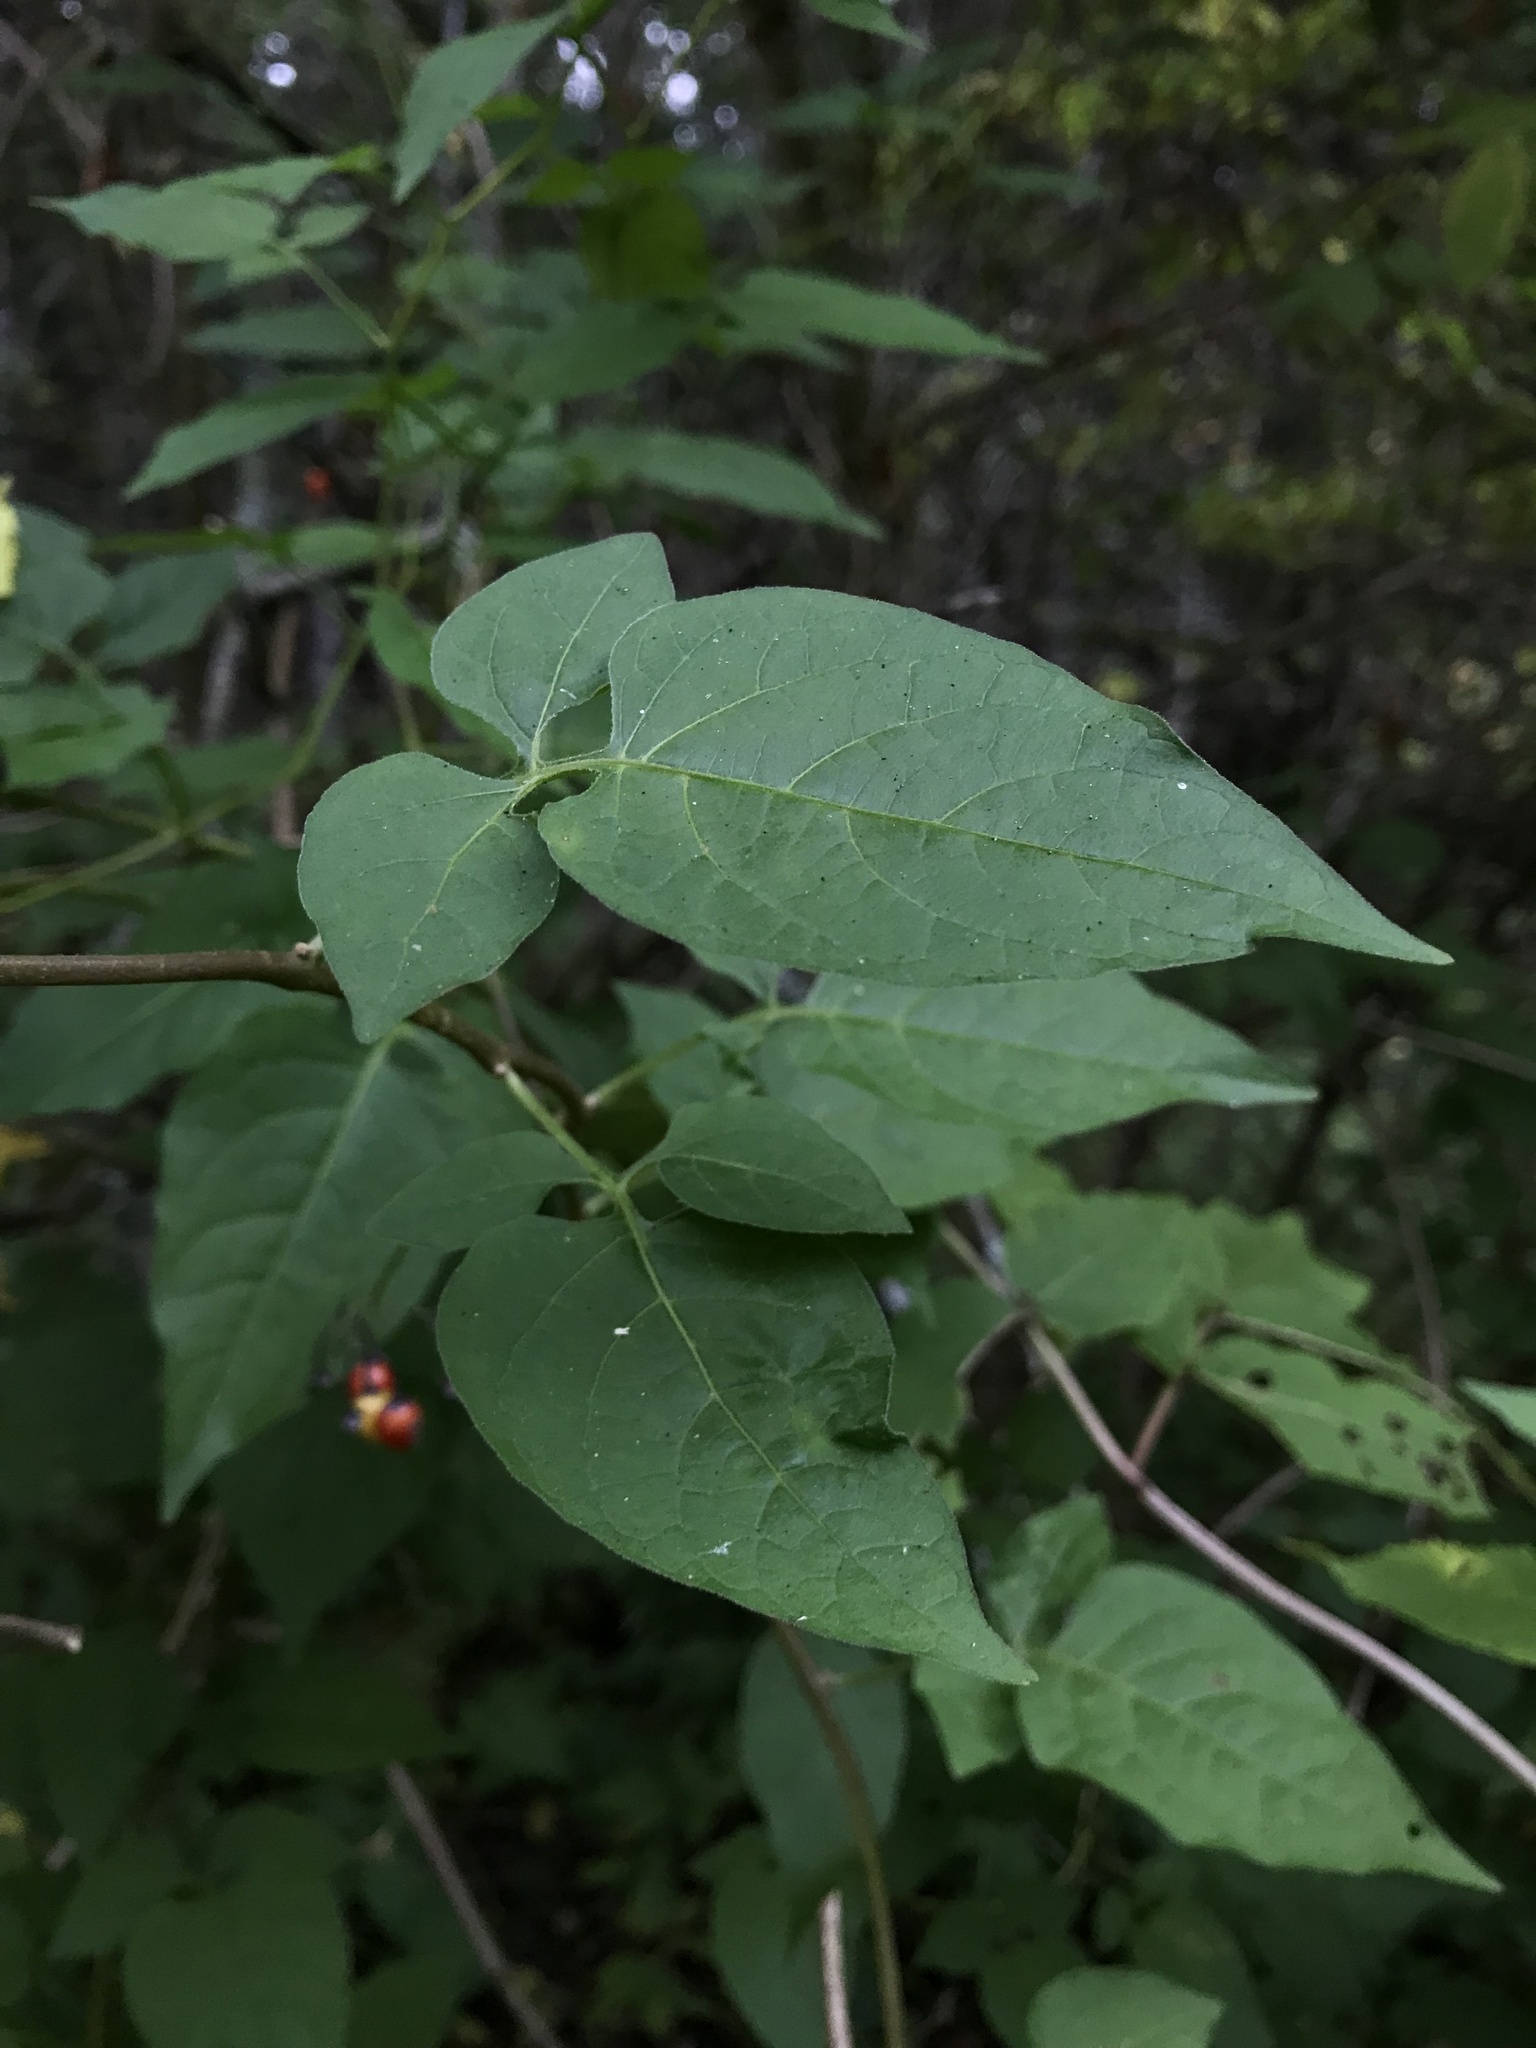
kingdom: Plantae
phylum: Tracheophyta
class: Magnoliopsida
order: Solanales
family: Solanaceae
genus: Solanum
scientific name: Solanum dulcamara
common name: Climbing nightshade
